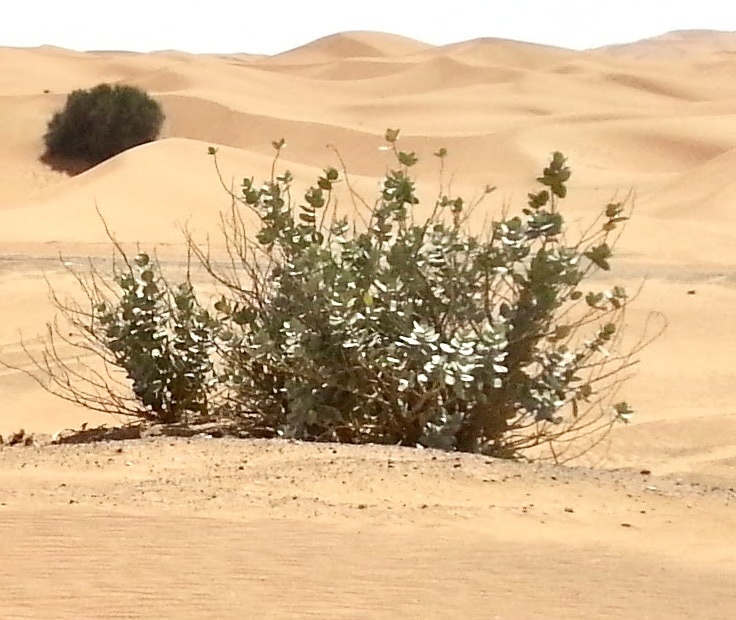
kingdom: Plantae
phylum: Tracheophyta
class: Magnoliopsida
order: Gentianales
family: Apocynaceae
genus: Calotropis
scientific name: Calotropis procera
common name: Roostertree
